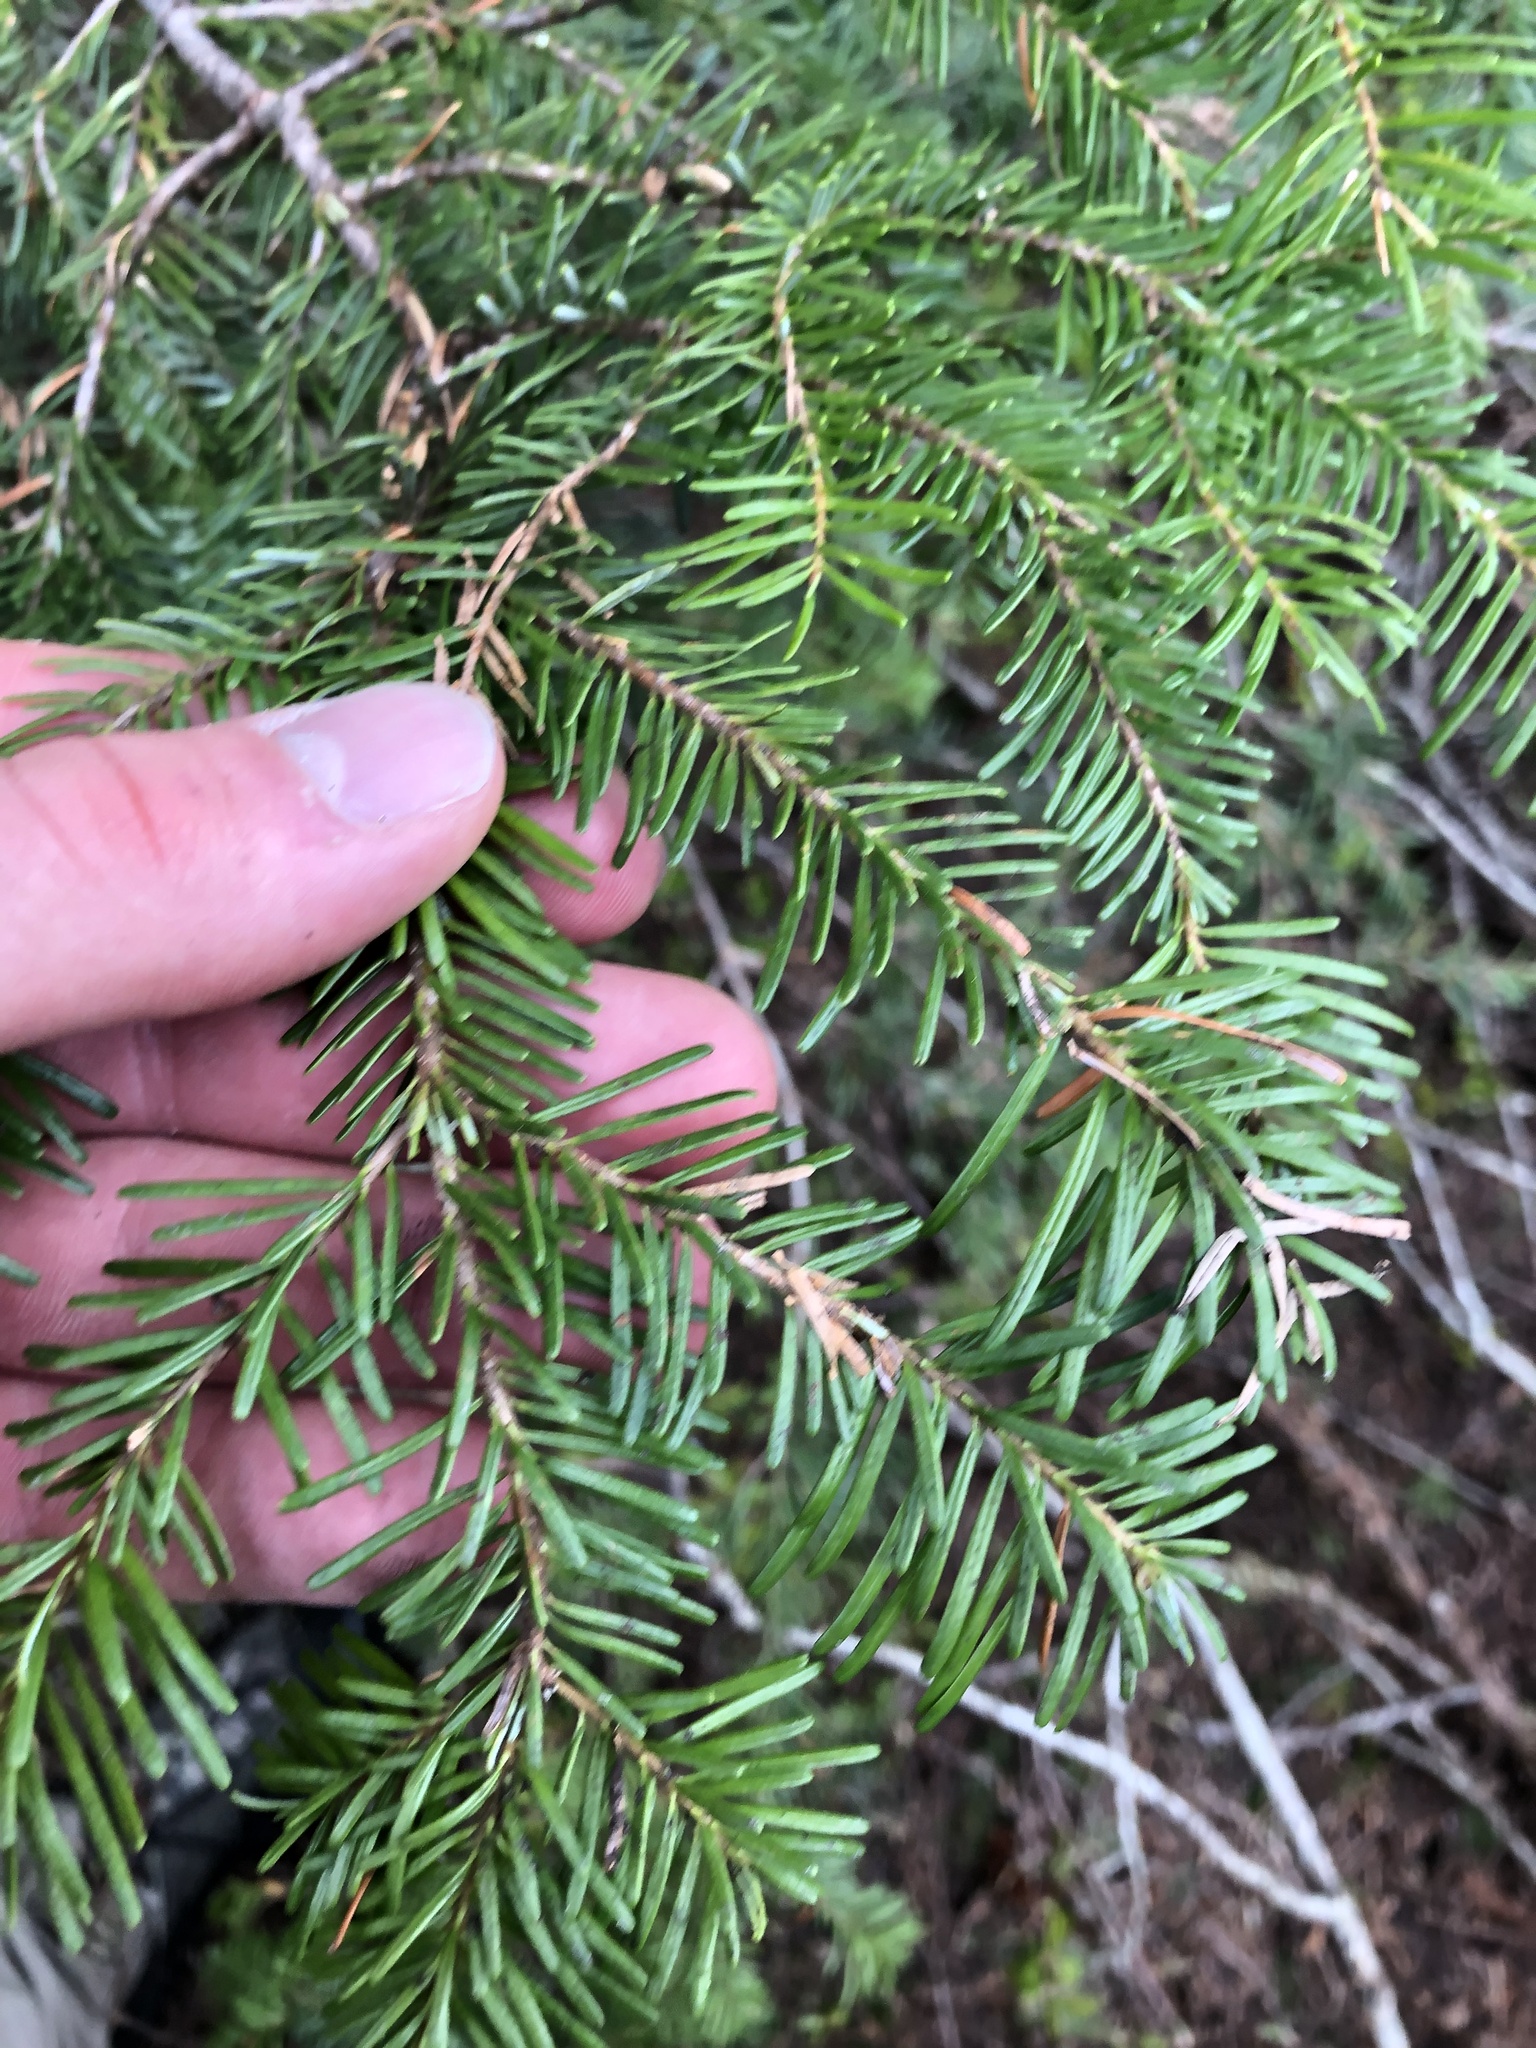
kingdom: Plantae
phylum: Tracheophyta
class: Pinopsida
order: Pinales
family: Pinaceae
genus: Abies
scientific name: Abies amabilis
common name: Pacific silver fir
